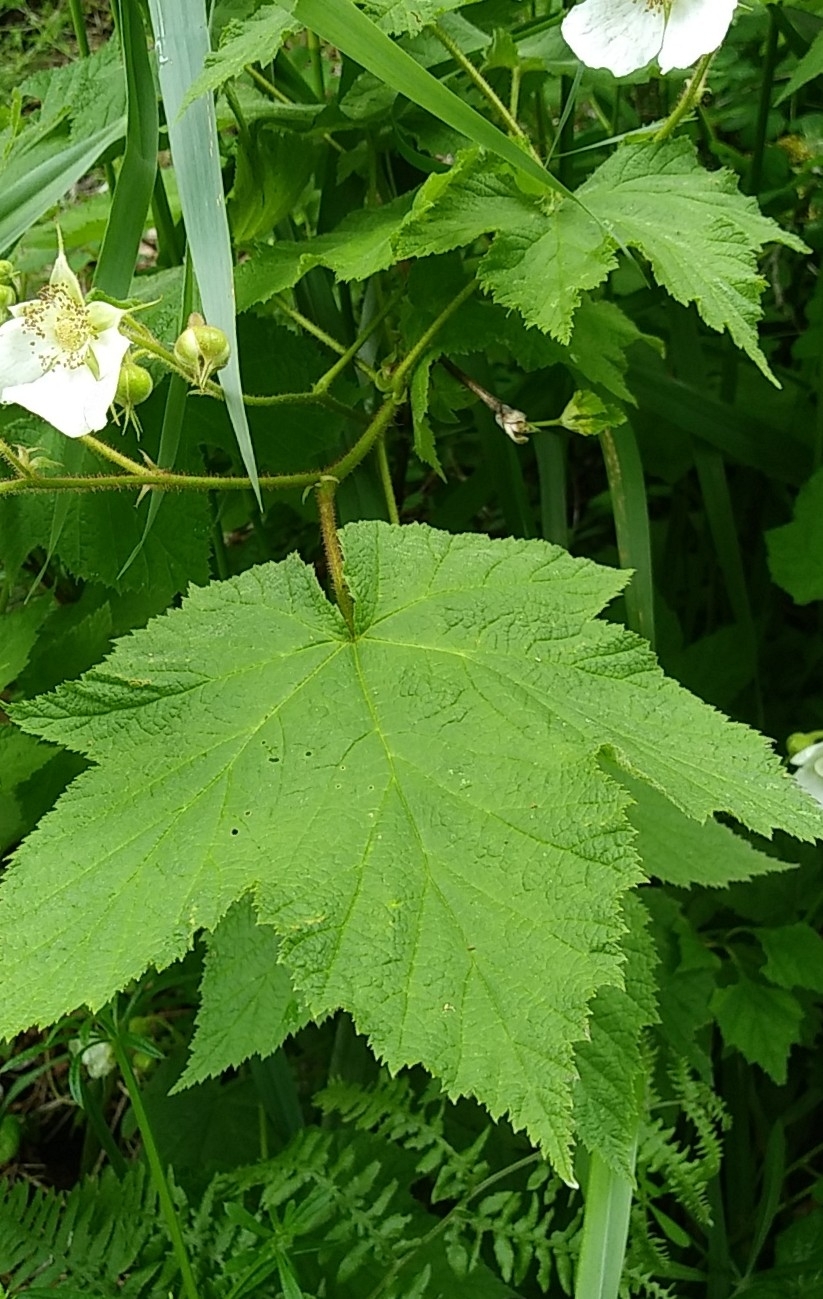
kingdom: Plantae
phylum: Tracheophyta
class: Magnoliopsida
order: Rosales
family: Rosaceae
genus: Rubus
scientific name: Rubus parviflorus
